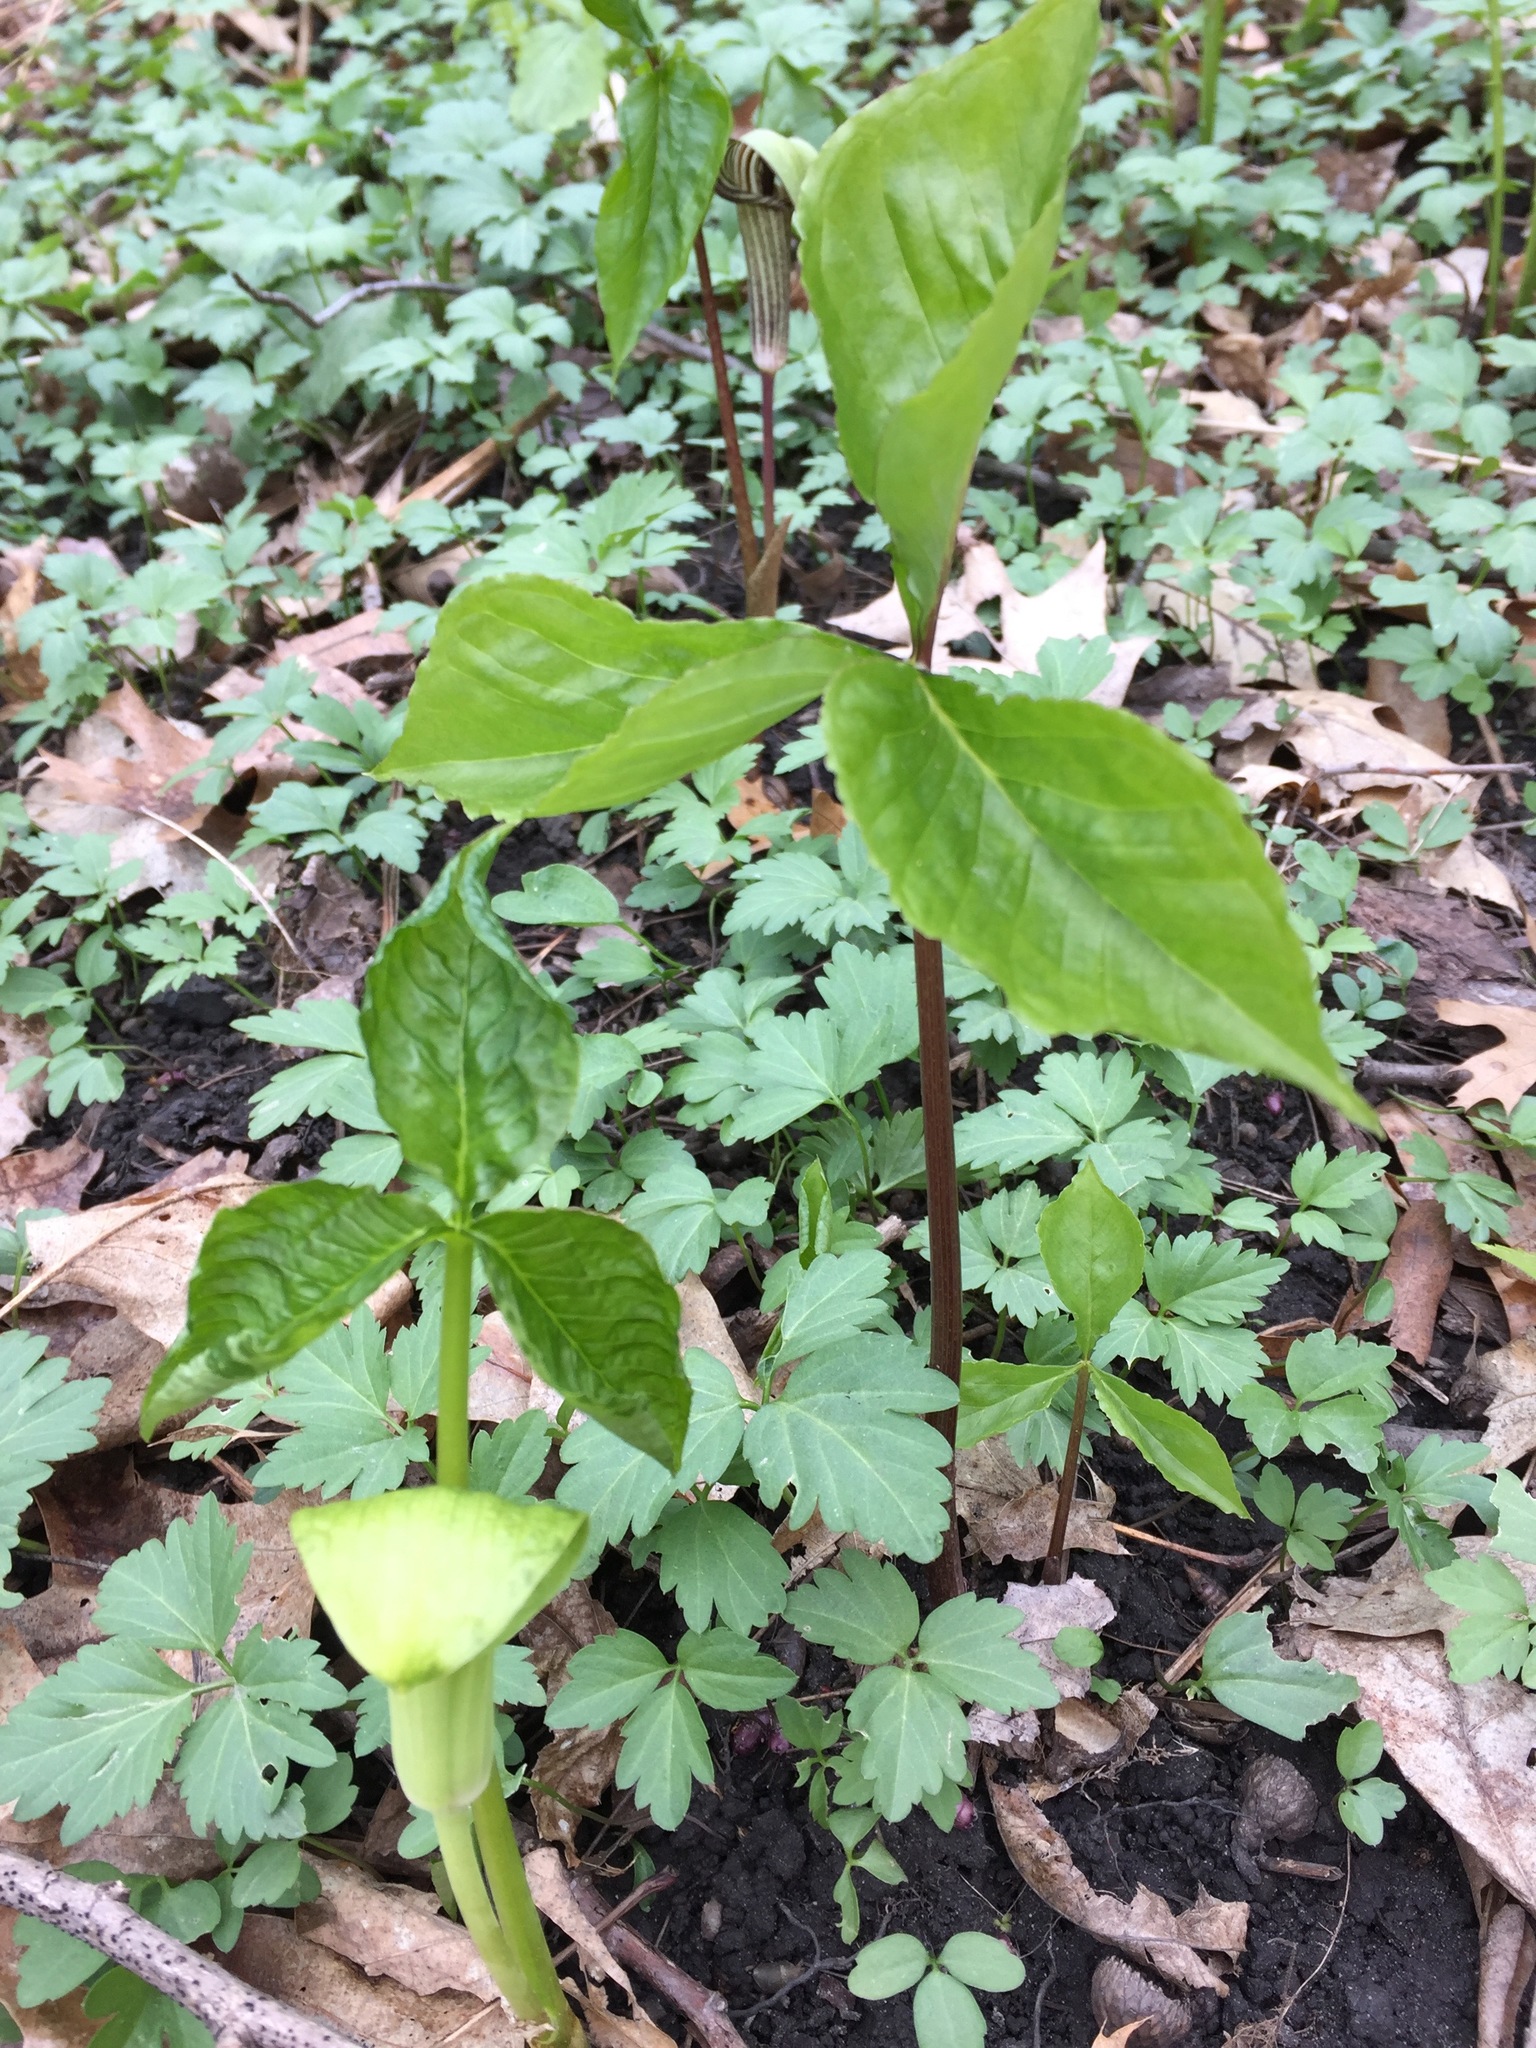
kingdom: Plantae
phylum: Tracheophyta
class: Liliopsida
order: Alismatales
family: Araceae
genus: Arisaema
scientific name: Arisaema triphyllum
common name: Jack-in-the-pulpit
